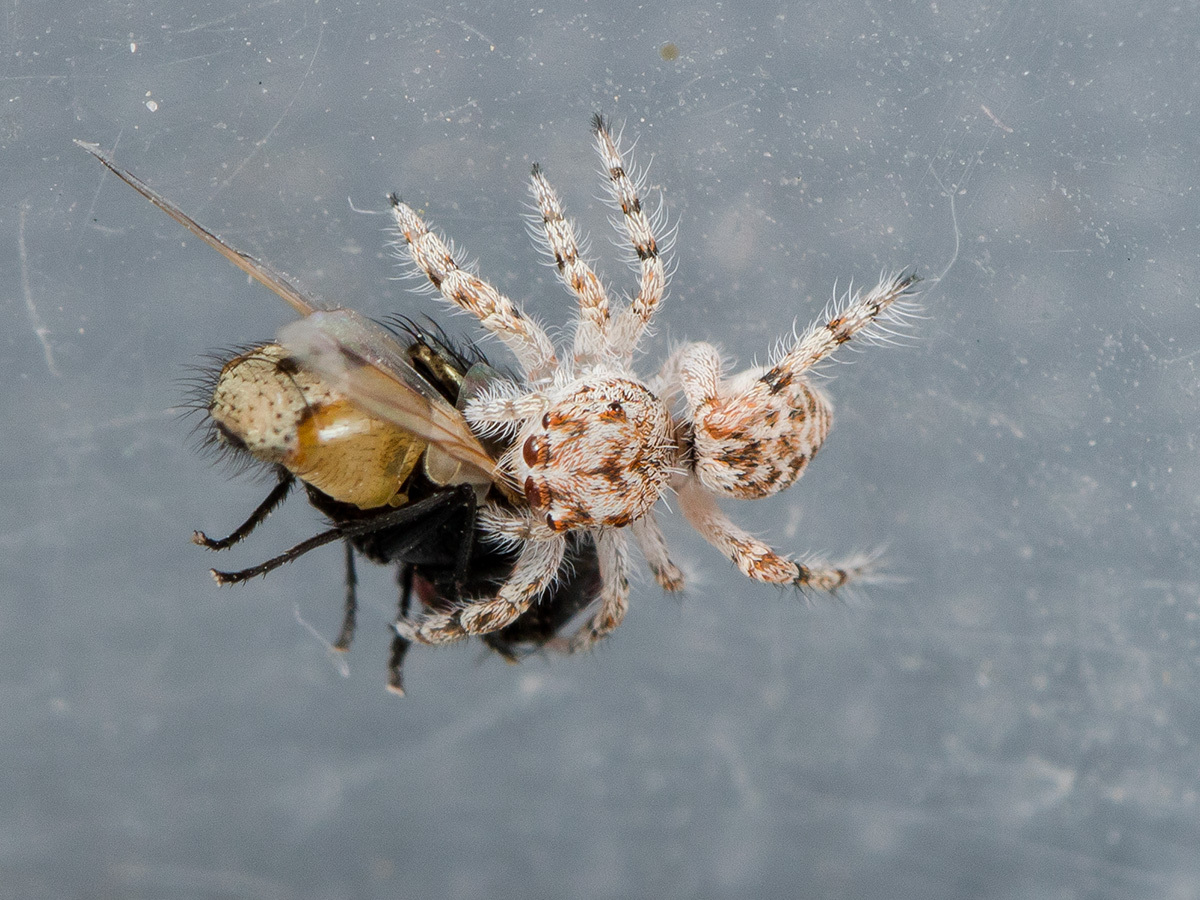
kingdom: Animalia
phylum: Arthropoda
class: Arachnida
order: Araneae
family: Salticidae
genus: Yllenus
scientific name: Yllenus uiguricus
